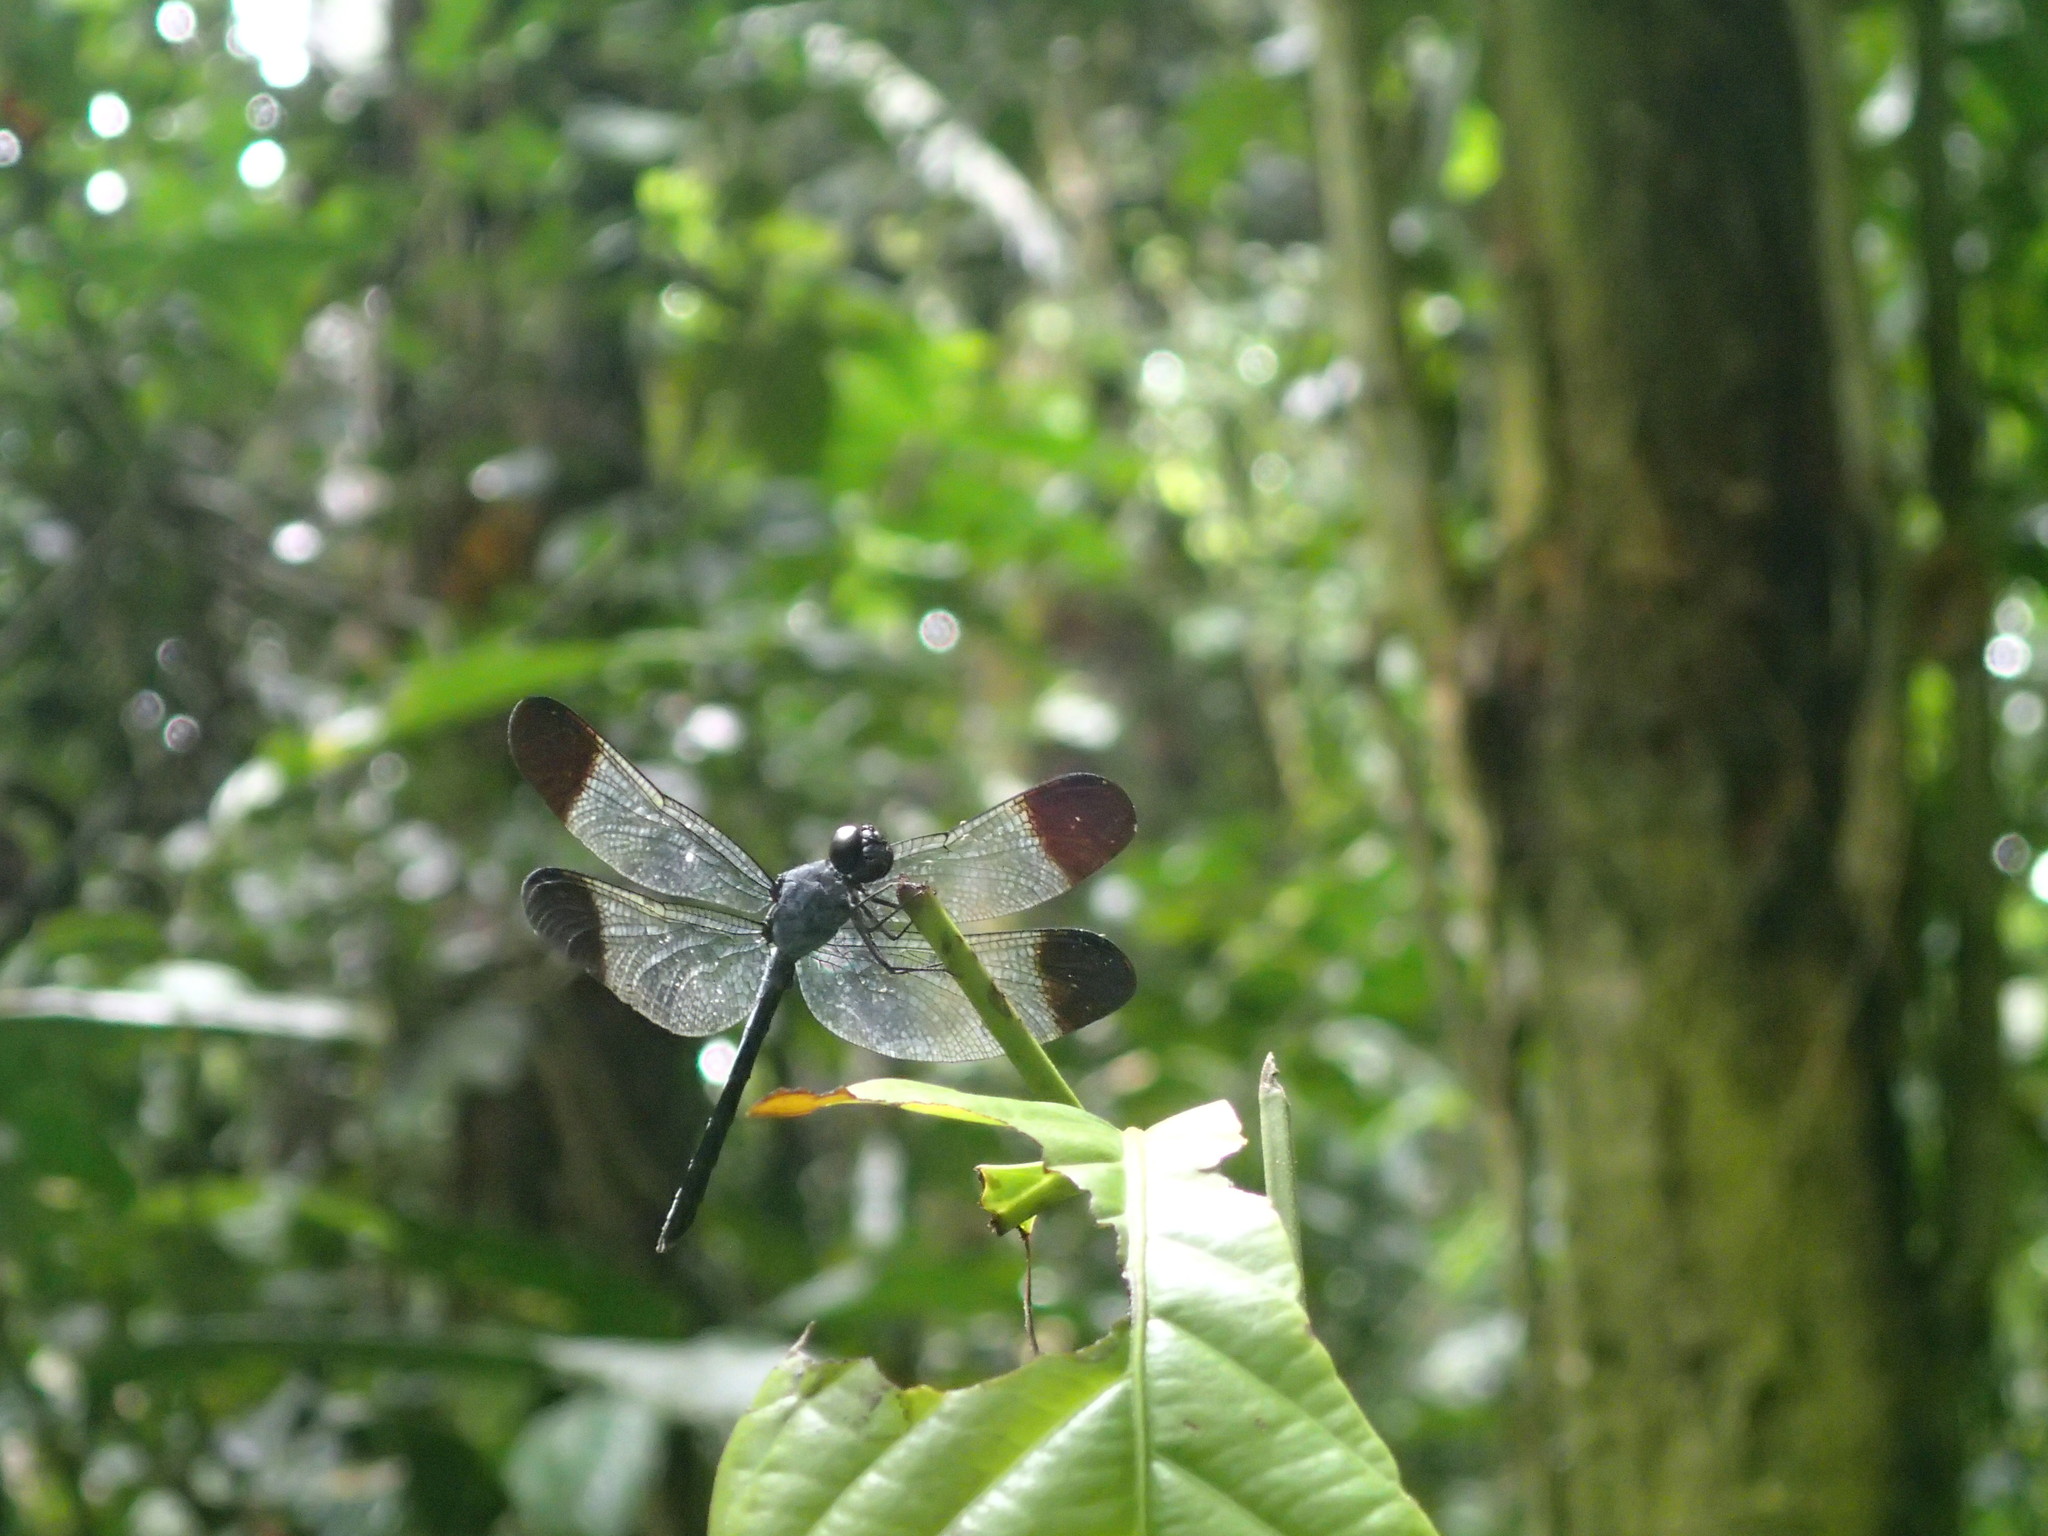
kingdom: Animalia
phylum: Arthropoda
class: Insecta
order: Odonata
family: Libellulidae
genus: Uracis
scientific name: Uracis fastigiata
